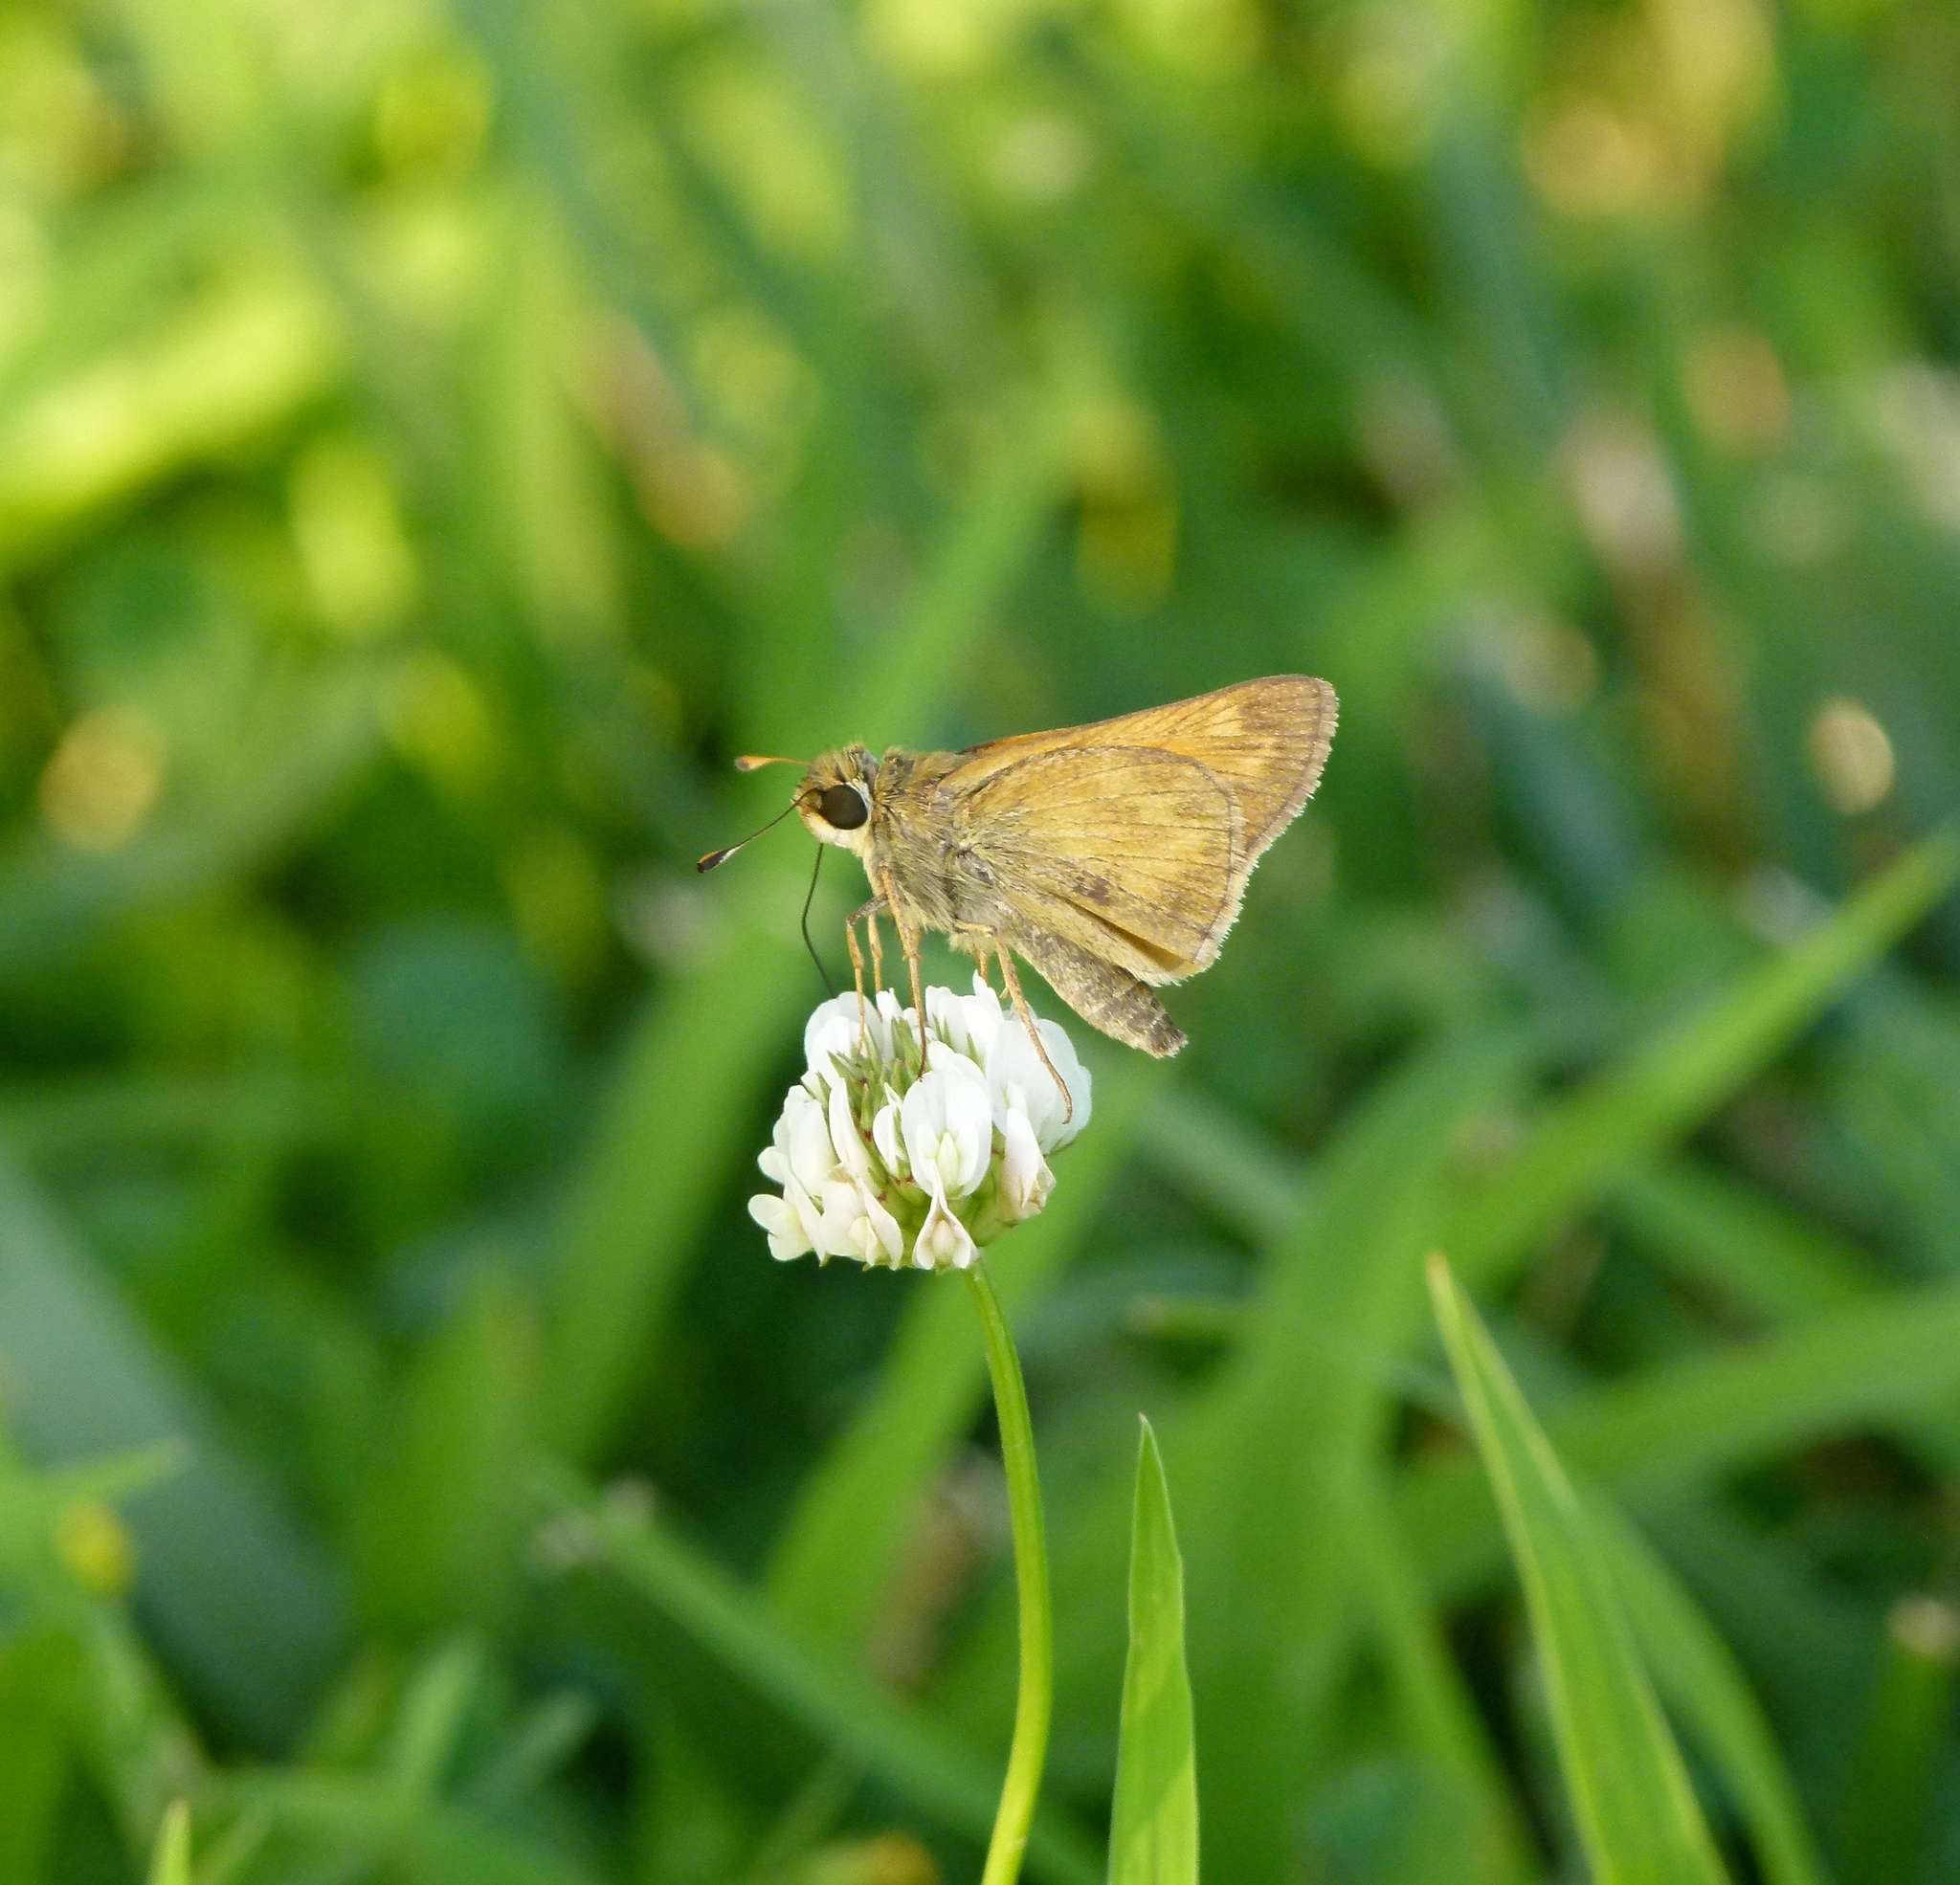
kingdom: Animalia
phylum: Arthropoda
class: Insecta
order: Lepidoptera
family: Hesperiidae
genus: Atalopedes
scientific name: Atalopedes
